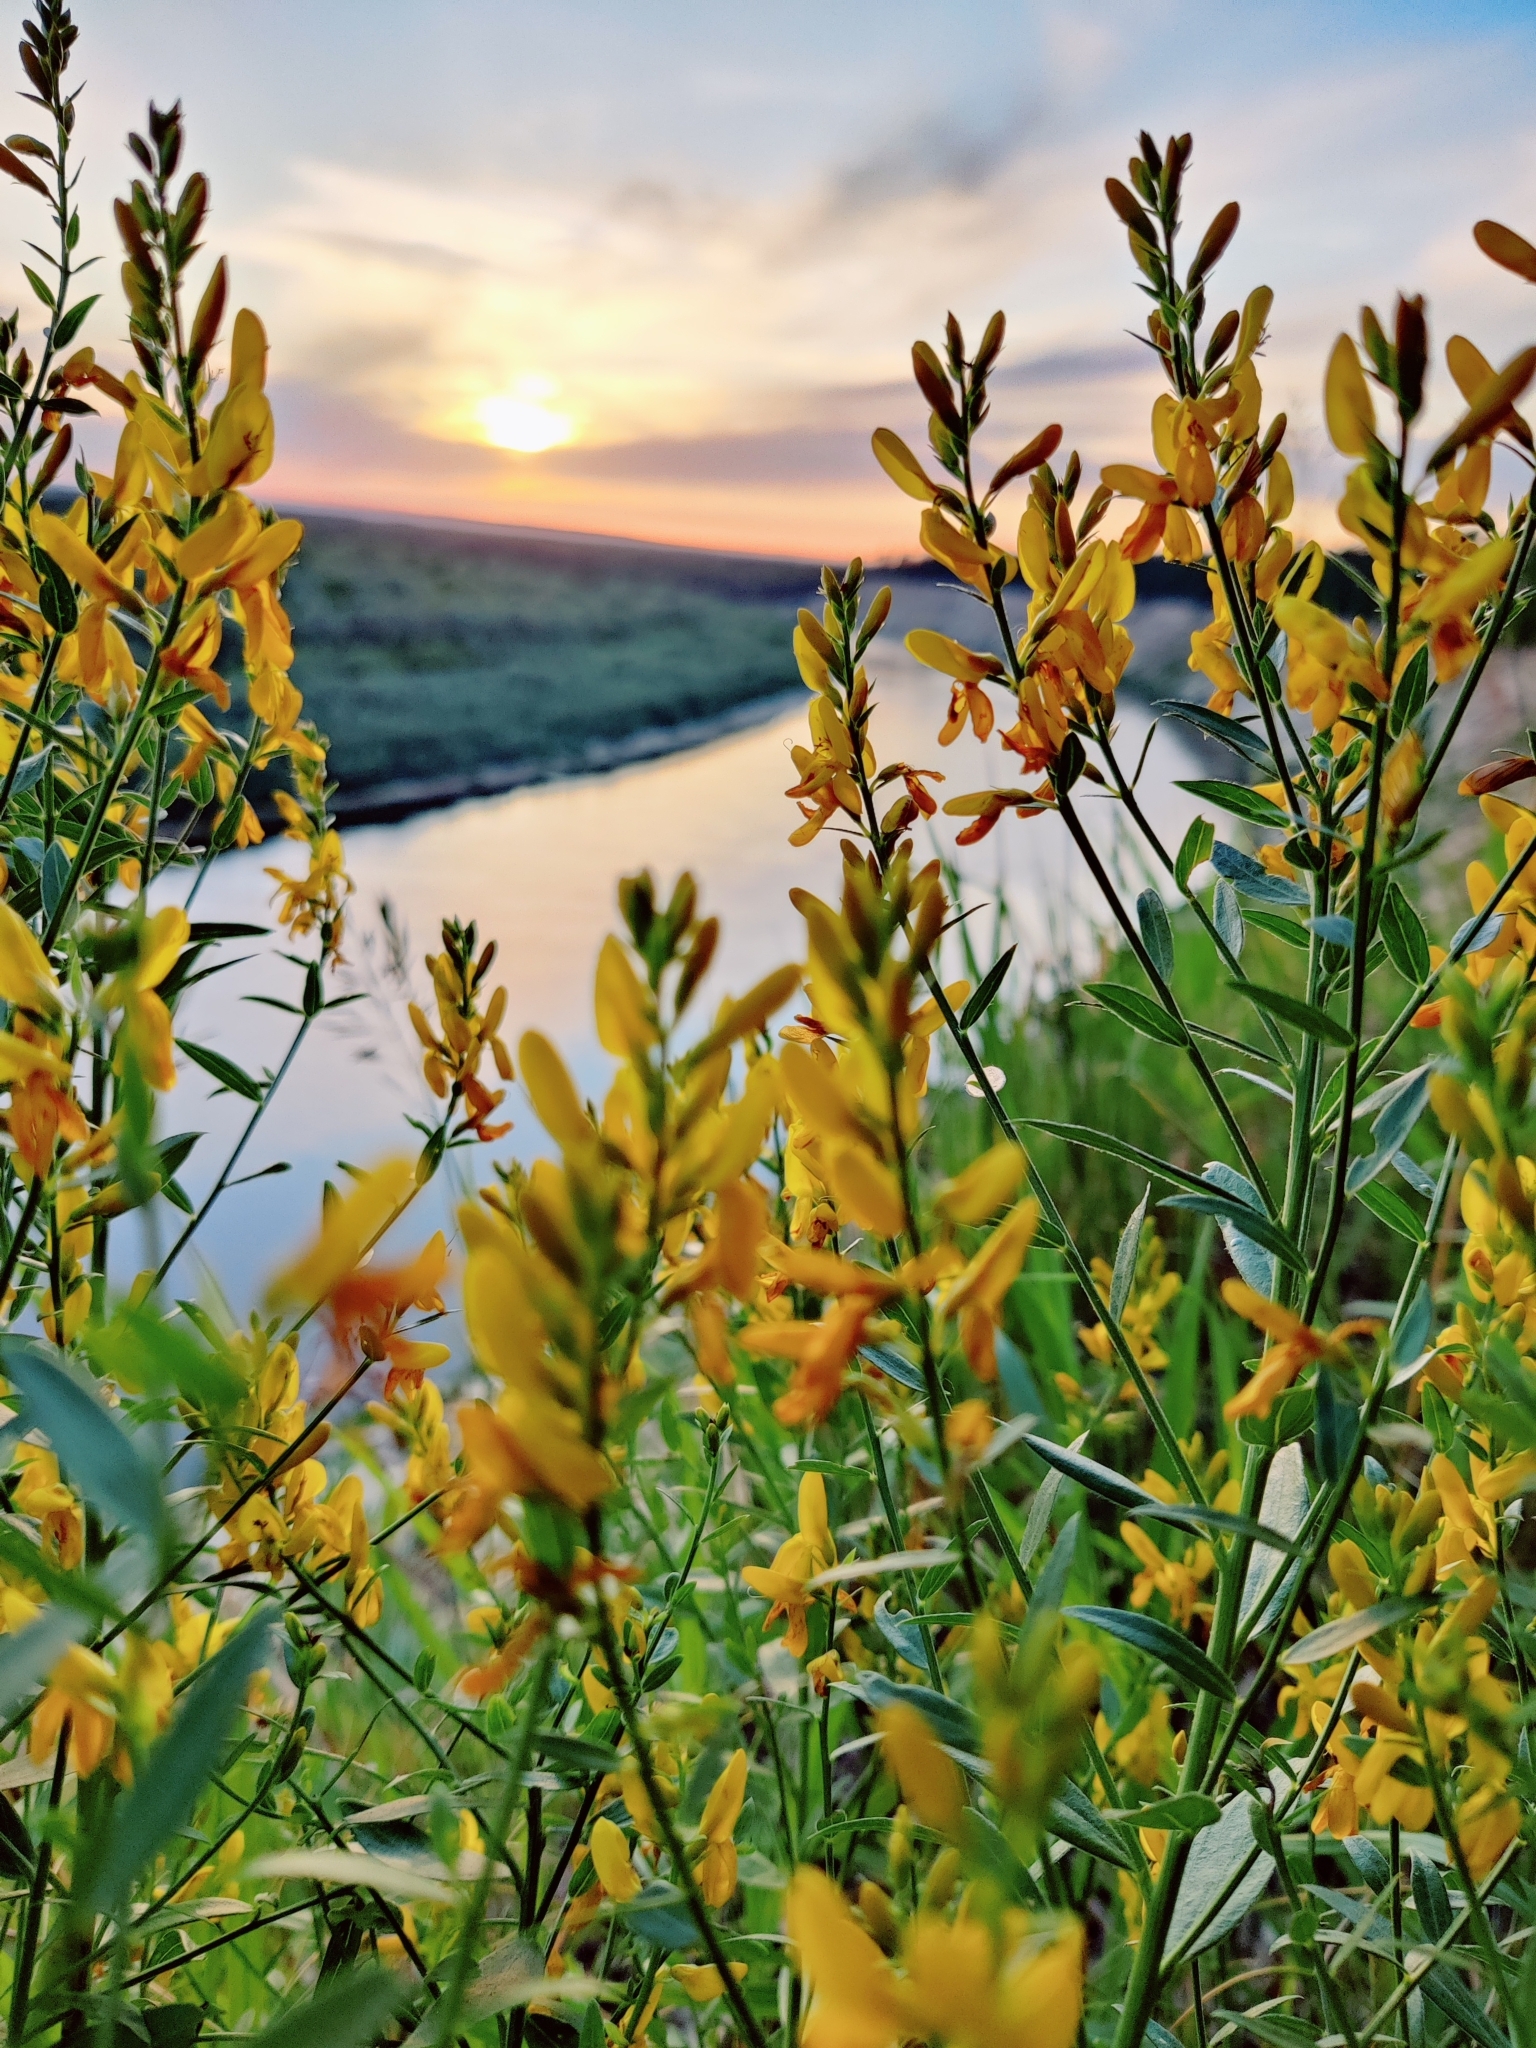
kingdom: Plantae
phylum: Tracheophyta
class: Magnoliopsida
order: Fabales
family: Fabaceae
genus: Genista
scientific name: Genista tinctoria
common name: Dyer's greenweed
